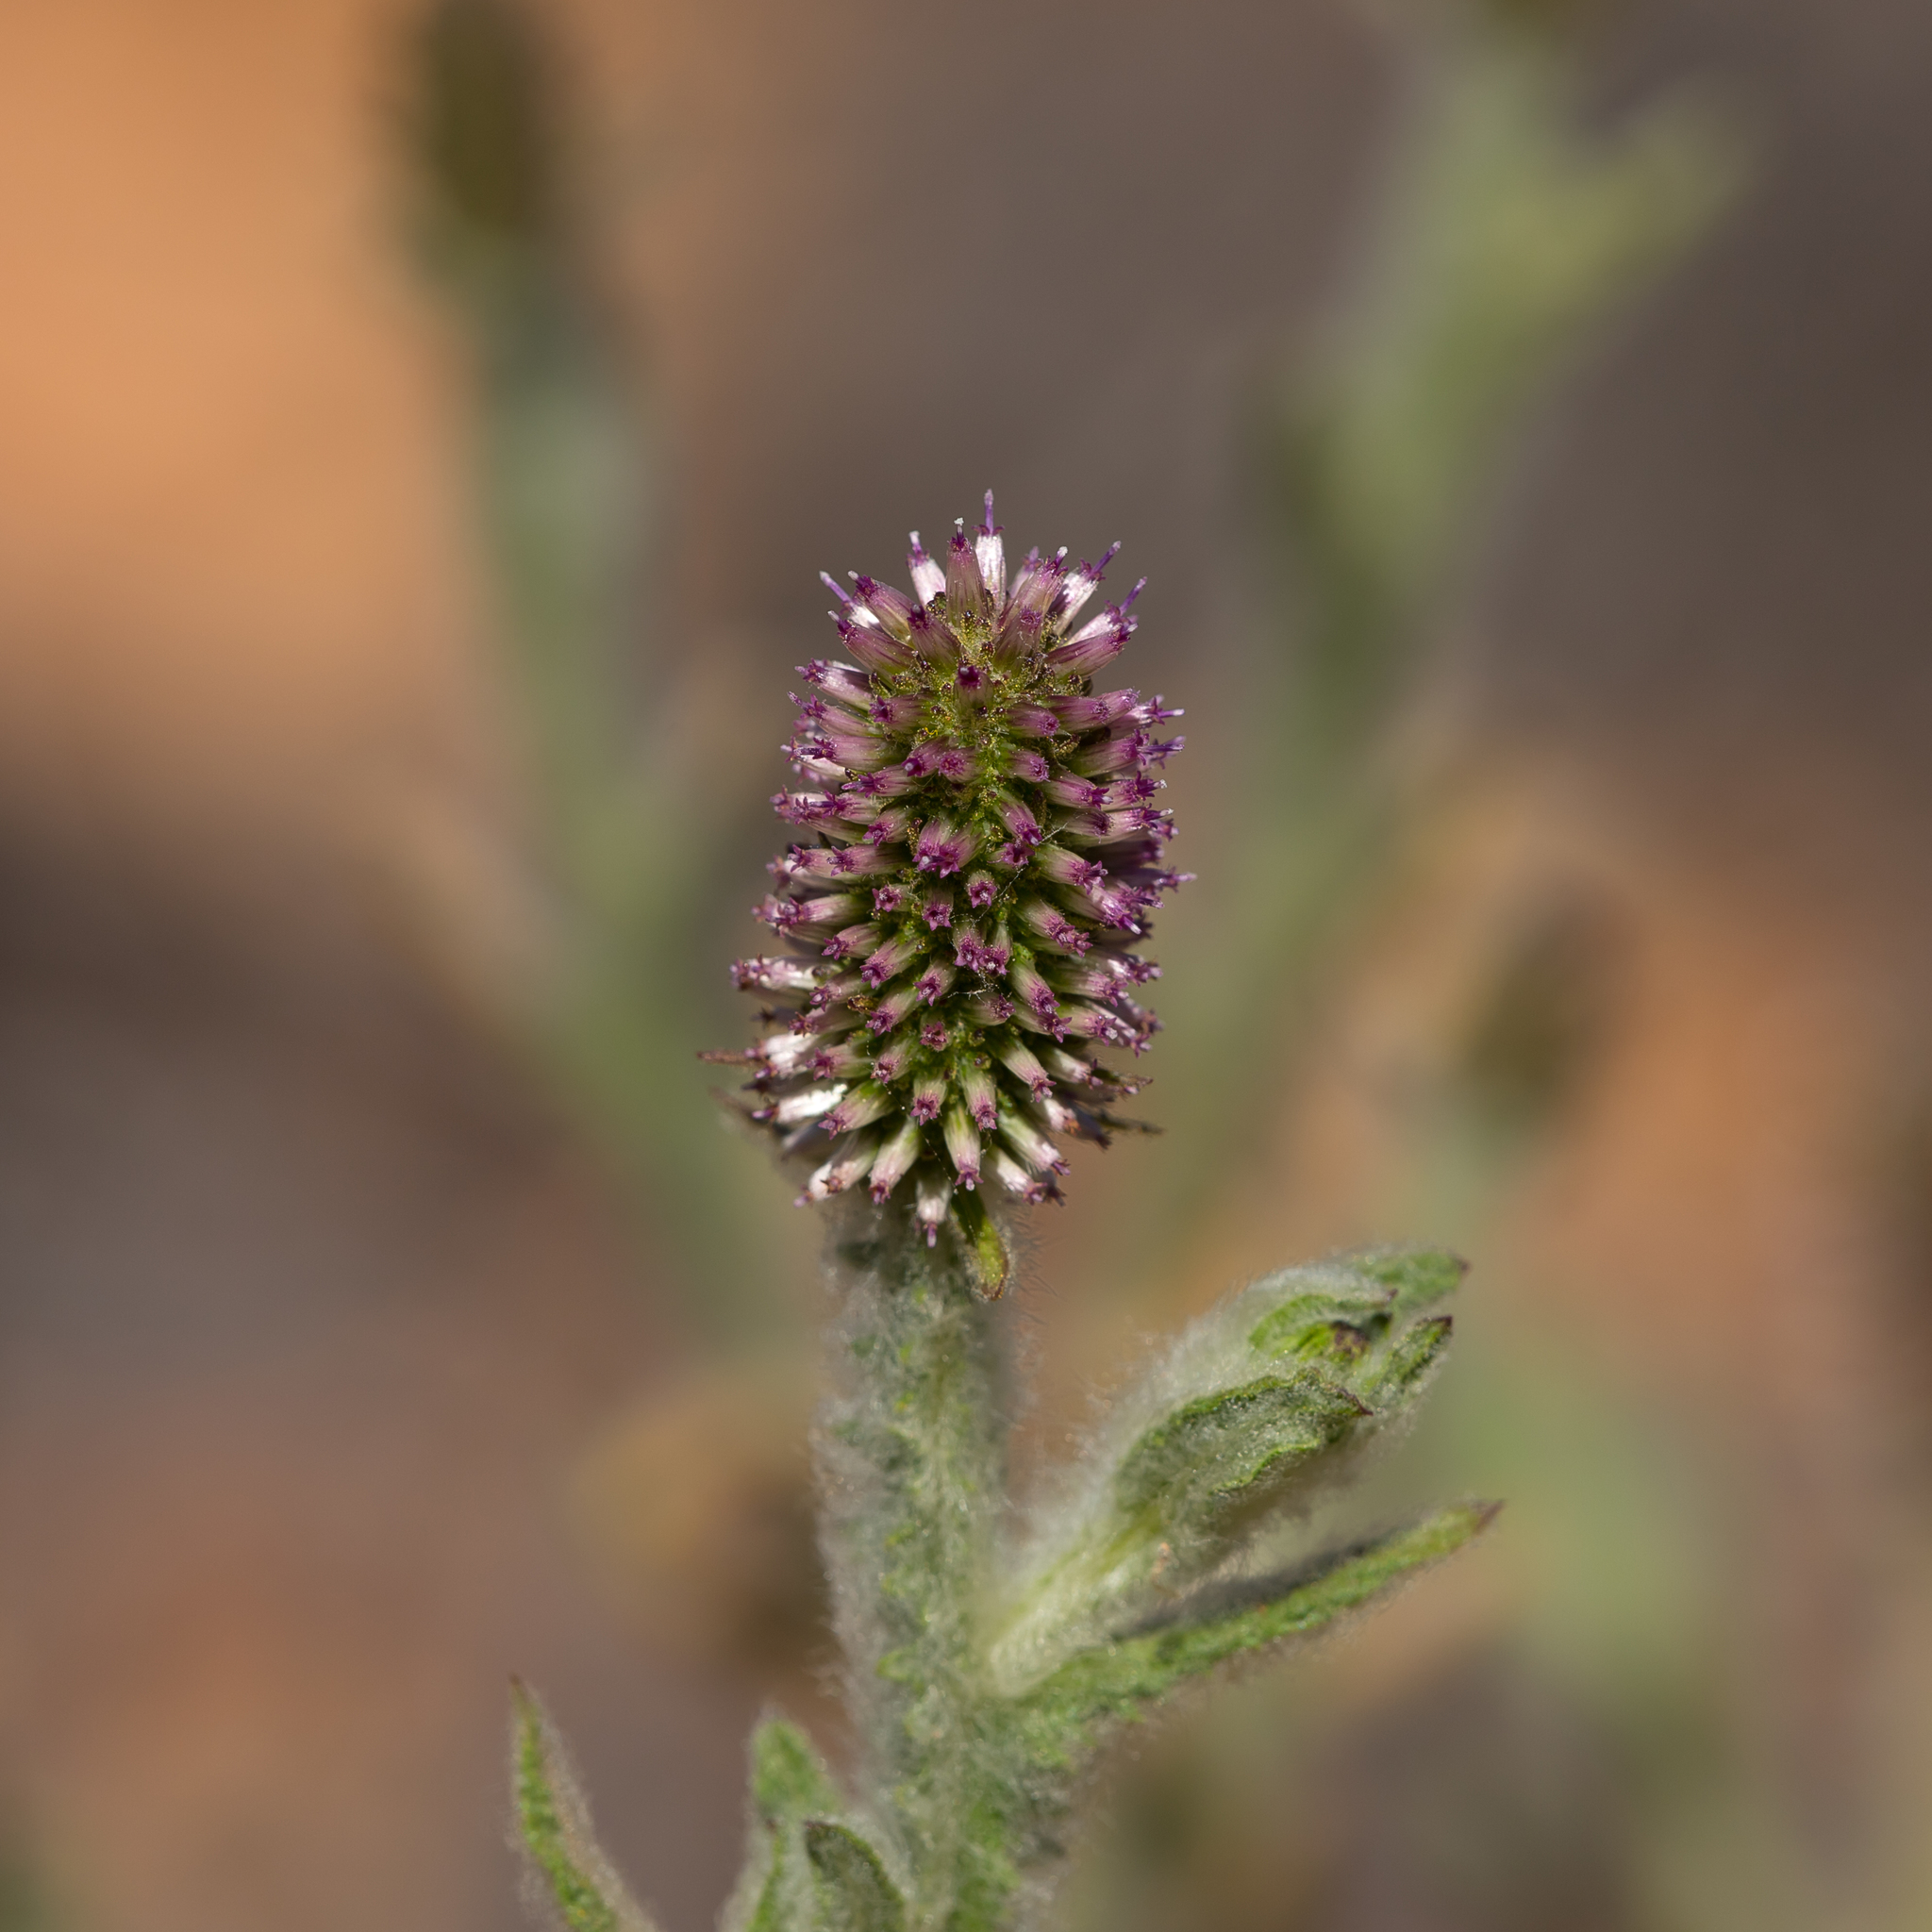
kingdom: Plantae
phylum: Tracheophyta
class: Magnoliopsida
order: Asterales
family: Asteraceae
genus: Pterocaulon
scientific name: Pterocaulon serrulatum
